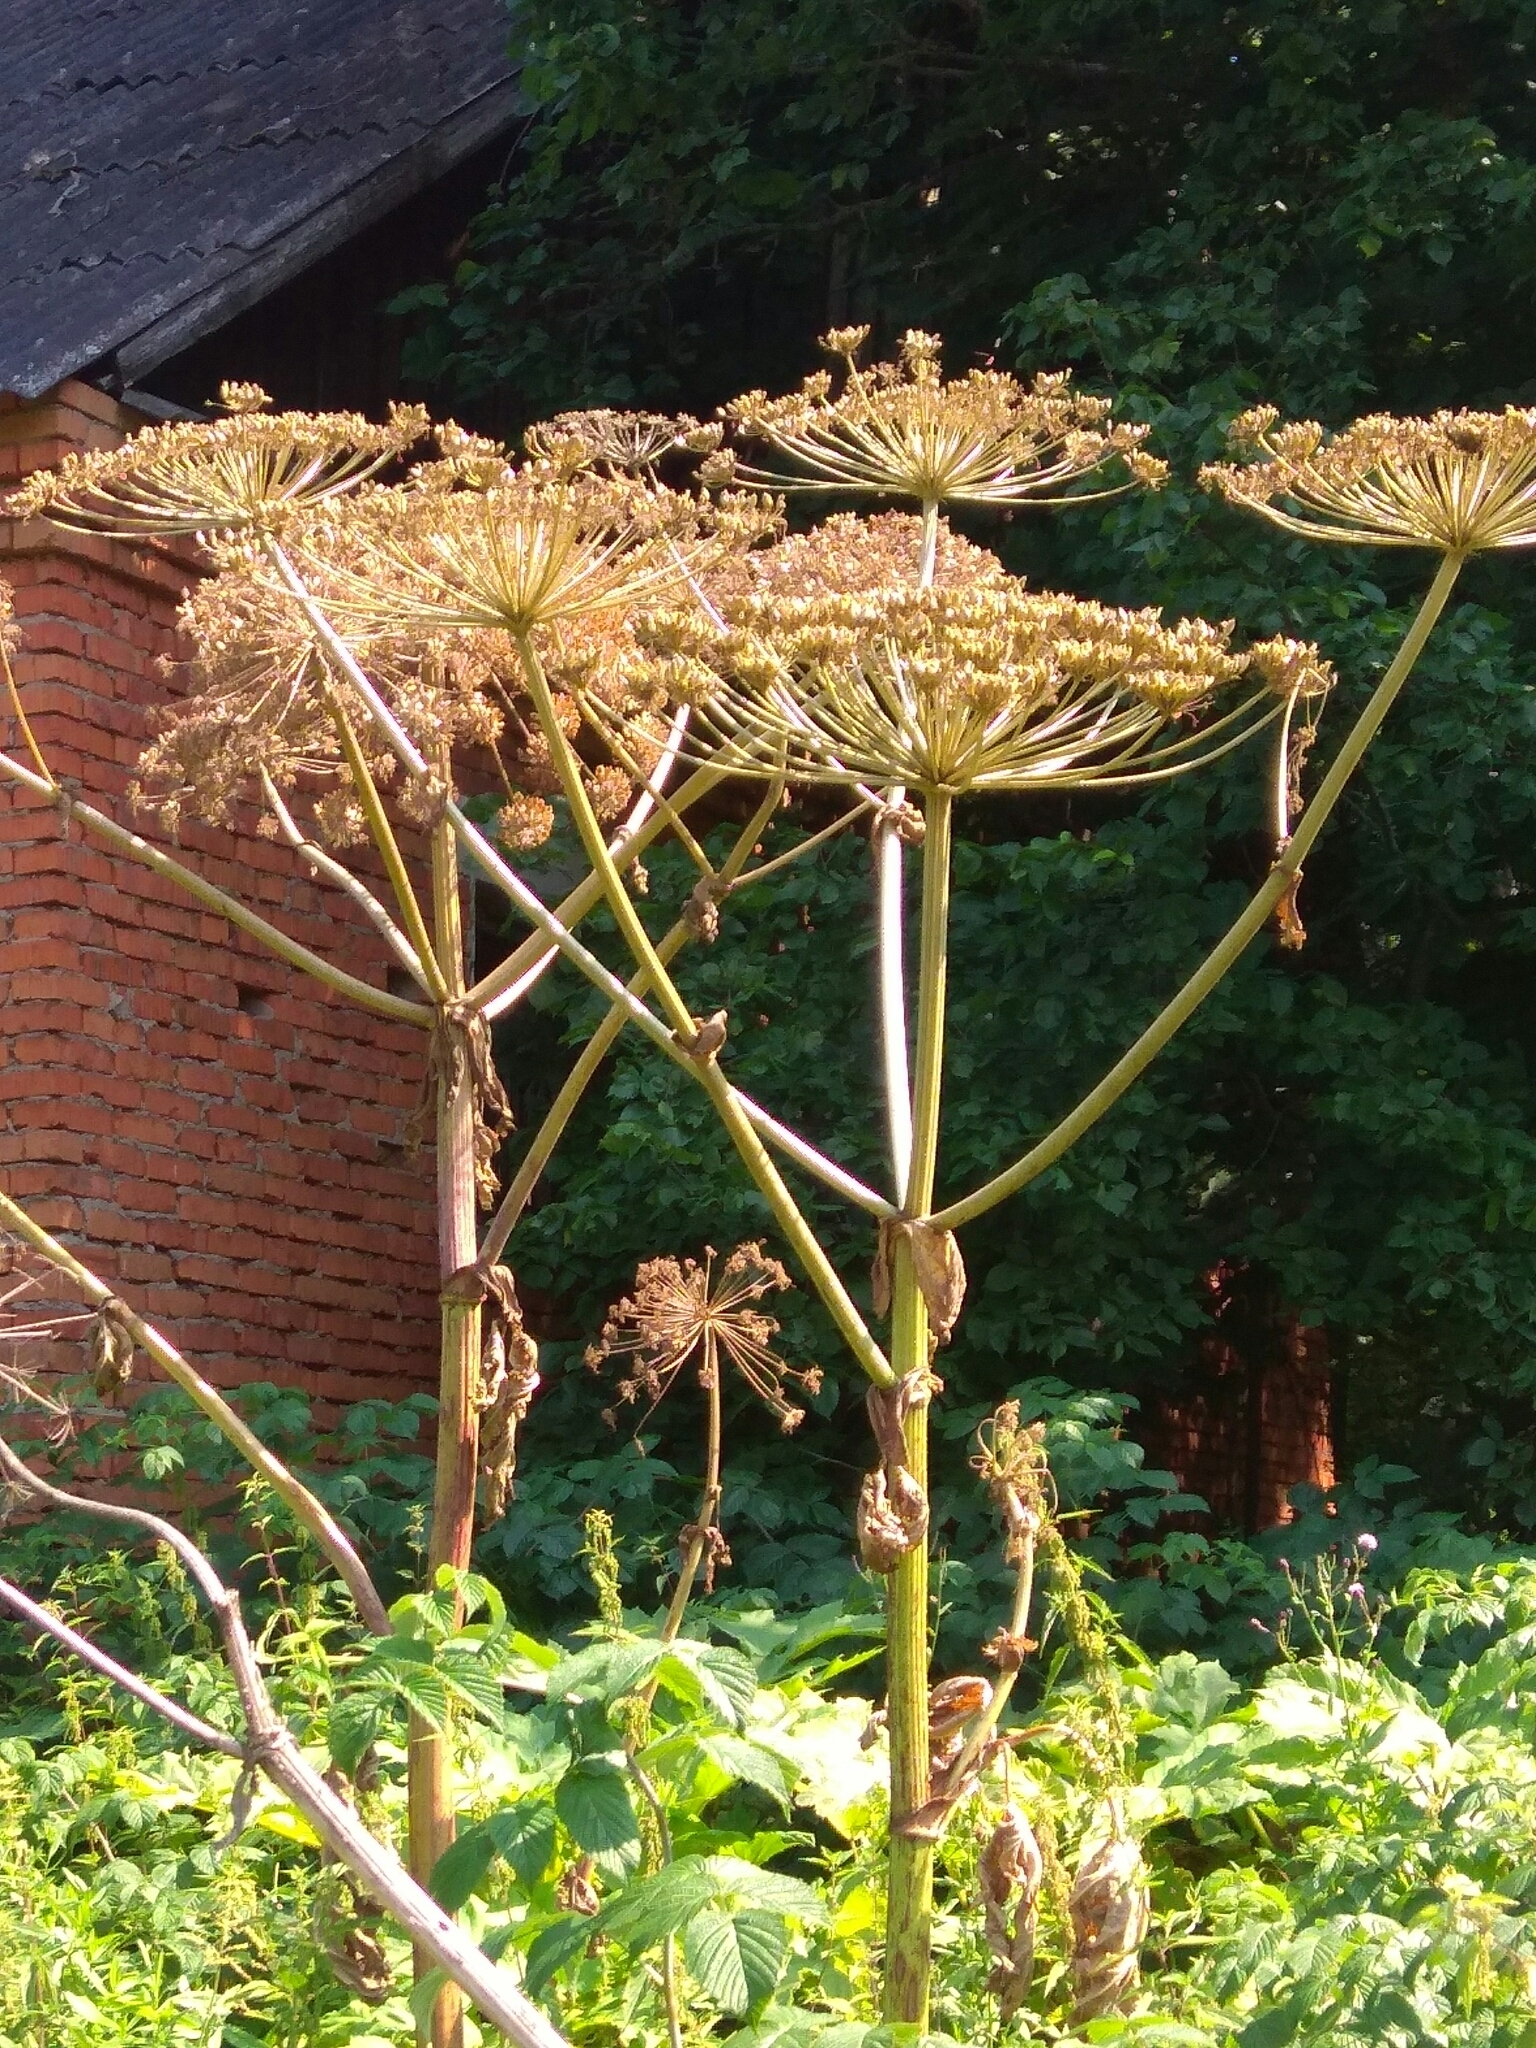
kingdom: Plantae
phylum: Tracheophyta
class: Magnoliopsida
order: Apiales
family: Apiaceae
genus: Heracleum
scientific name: Heracleum sosnowskyi
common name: Sosnowsky's hogweed
